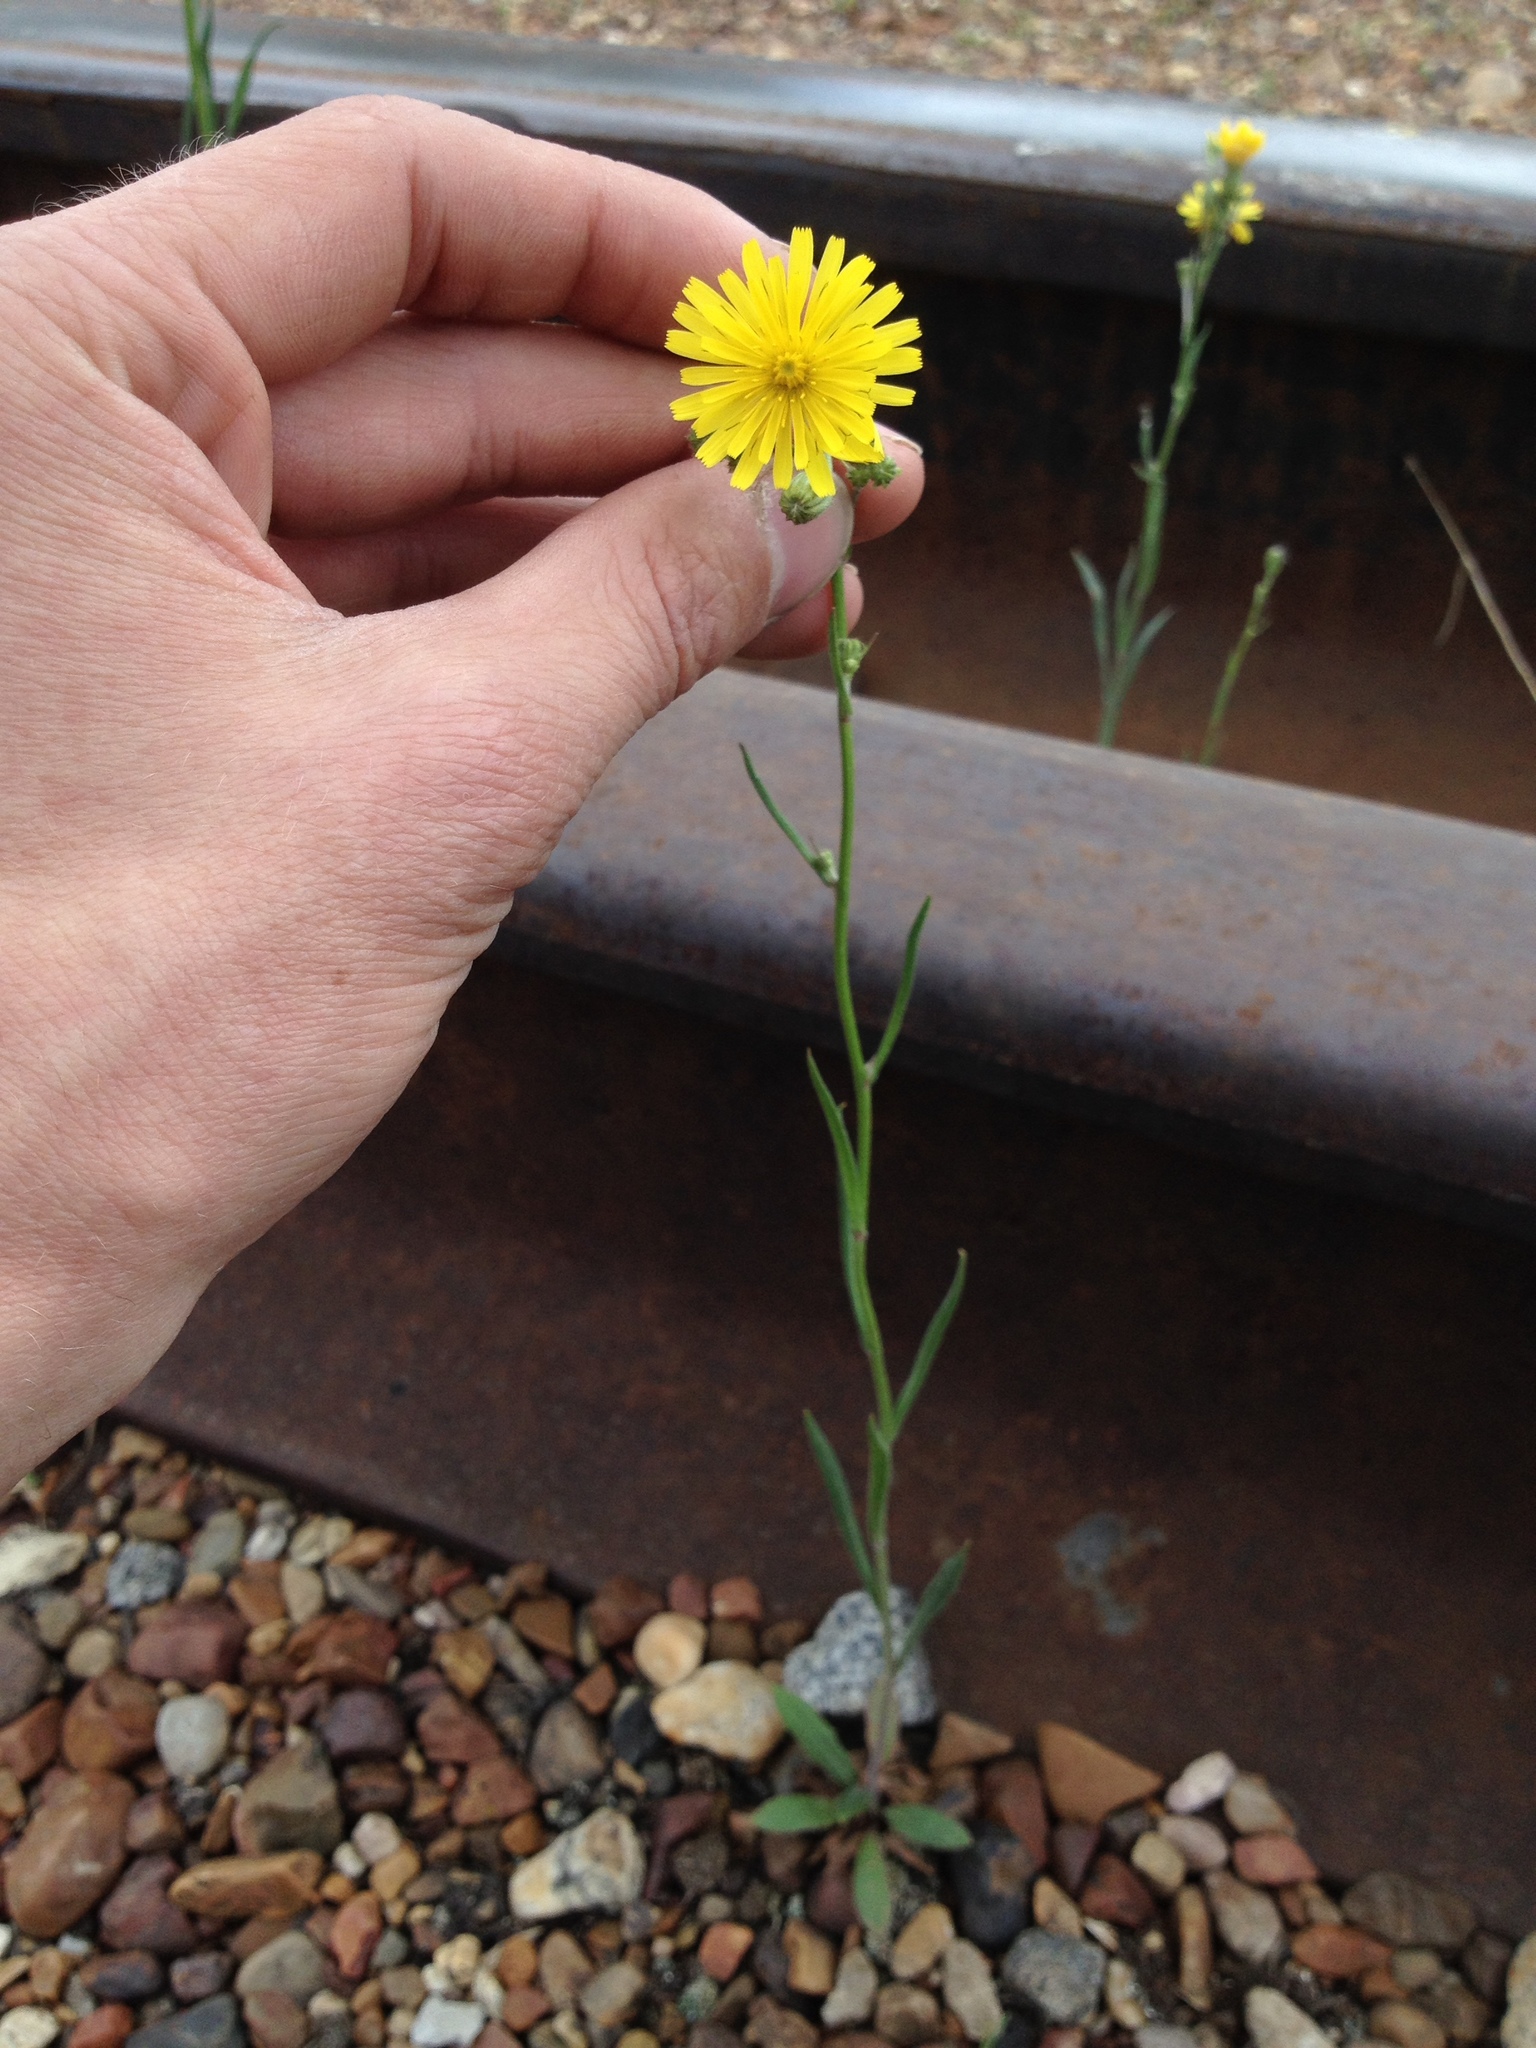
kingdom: Plantae
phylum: Tracheophyta
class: Magnoliopsida
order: Asterales
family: Asteraceae
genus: Crepis
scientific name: Crepis tectorum
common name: Narrow-leaved hawk's-beard
